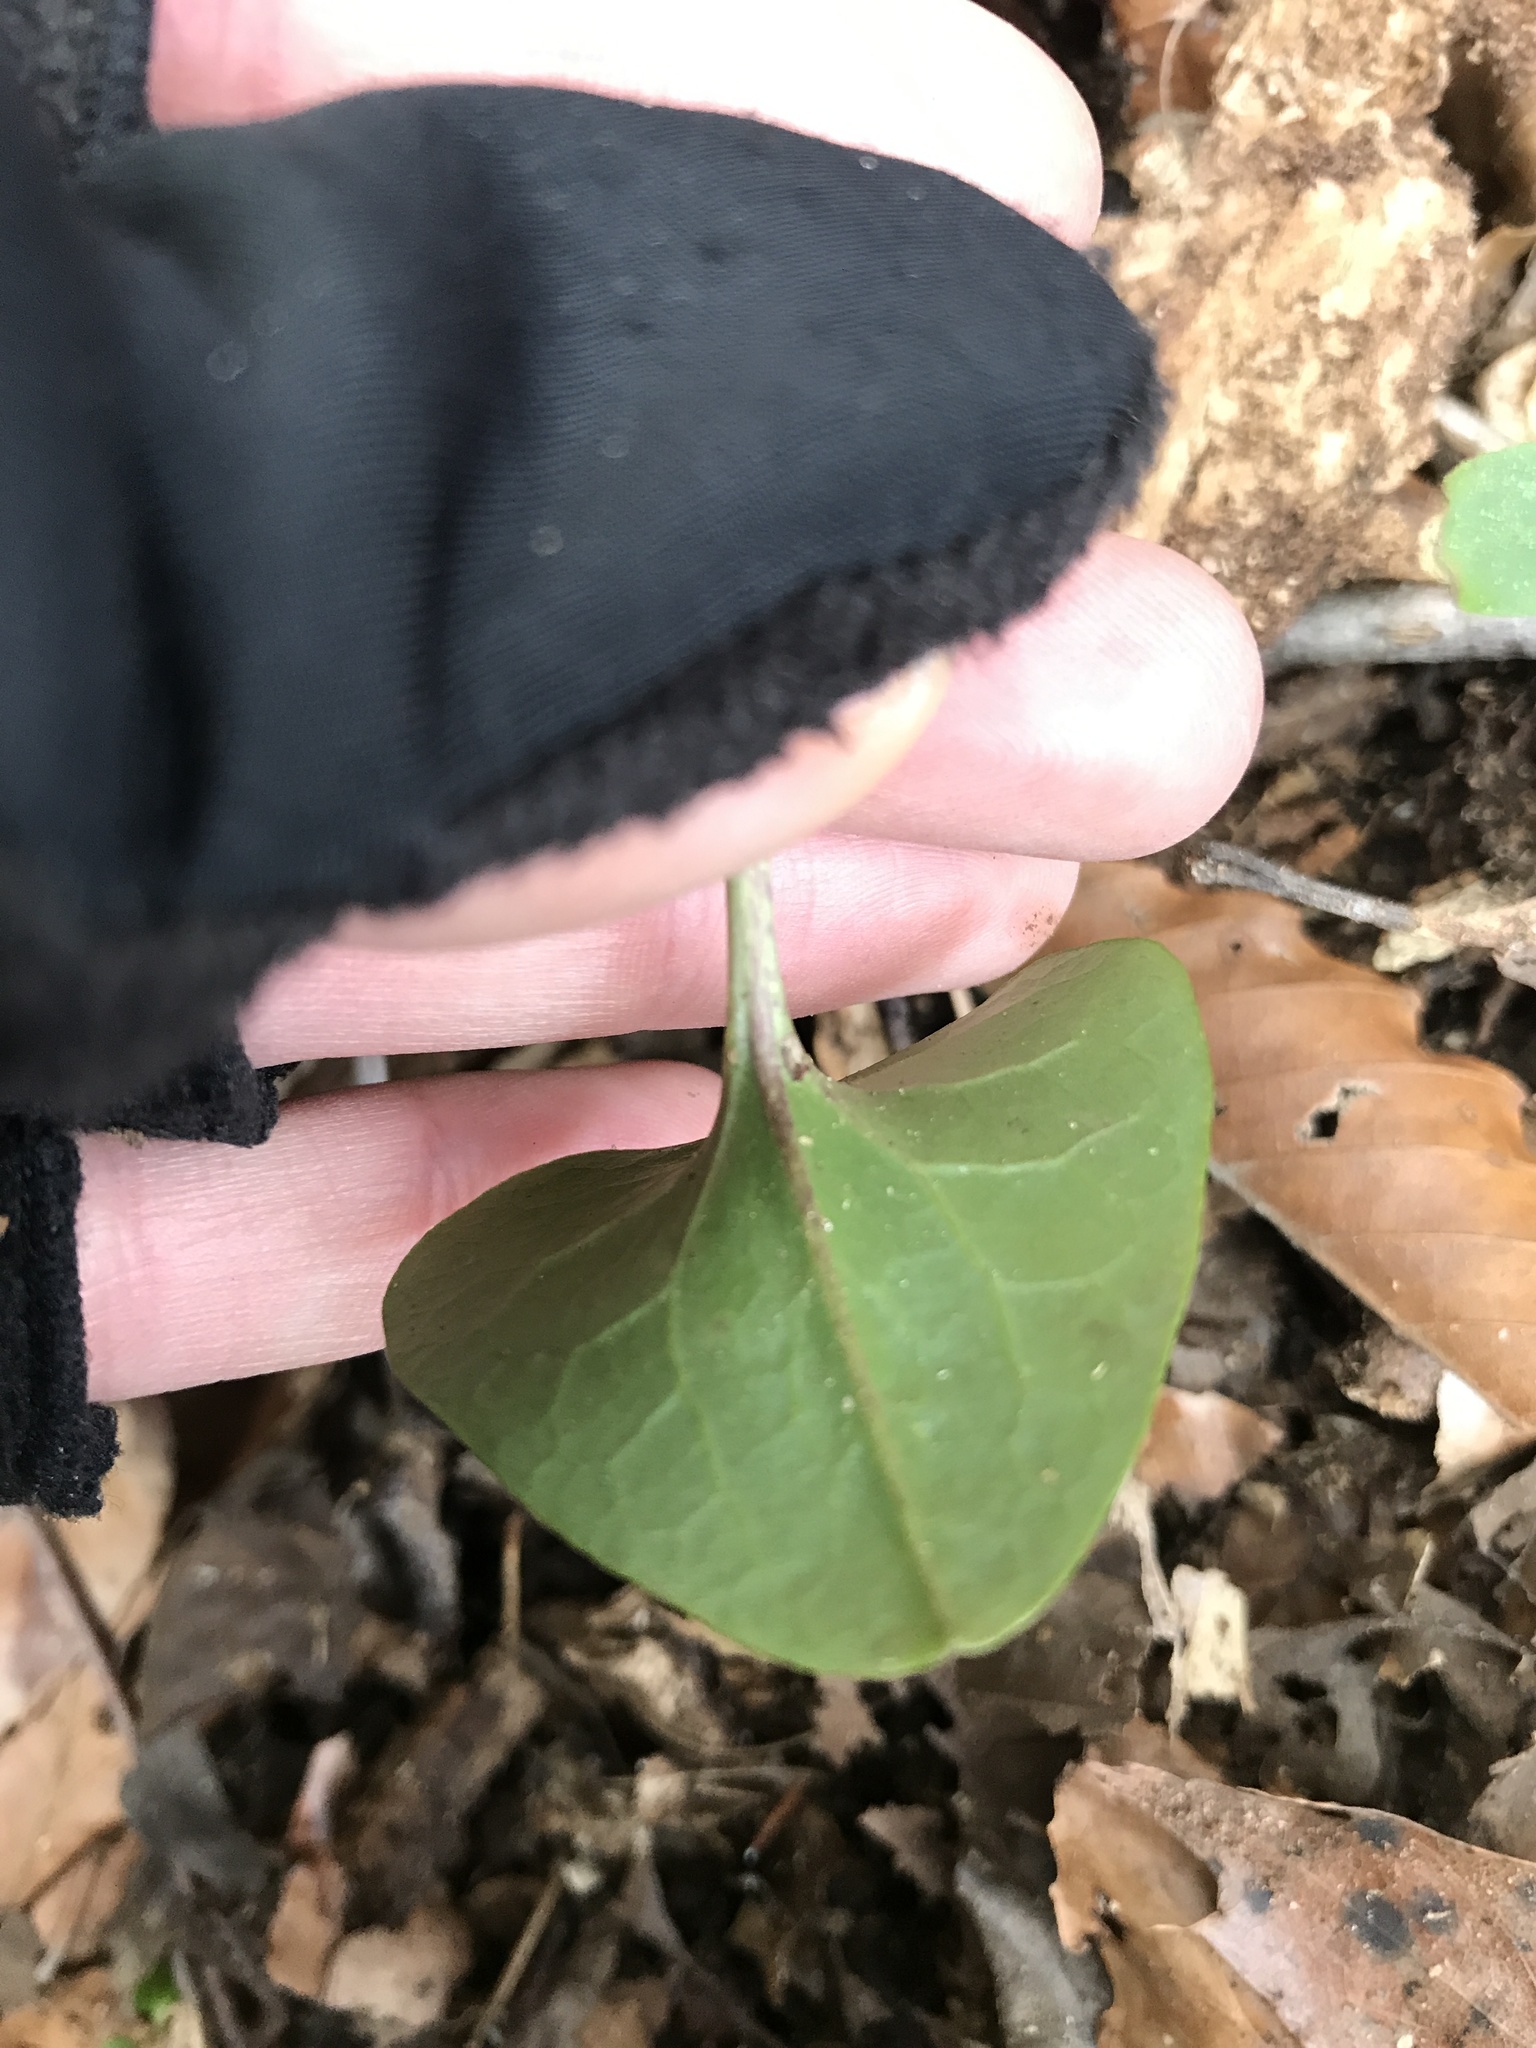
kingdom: Plantae
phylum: Tracheophyta
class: Magnoliopsida
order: Piperales
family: Aristolochiaceae
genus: Hexastylis
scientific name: Hexastylis arifolia
